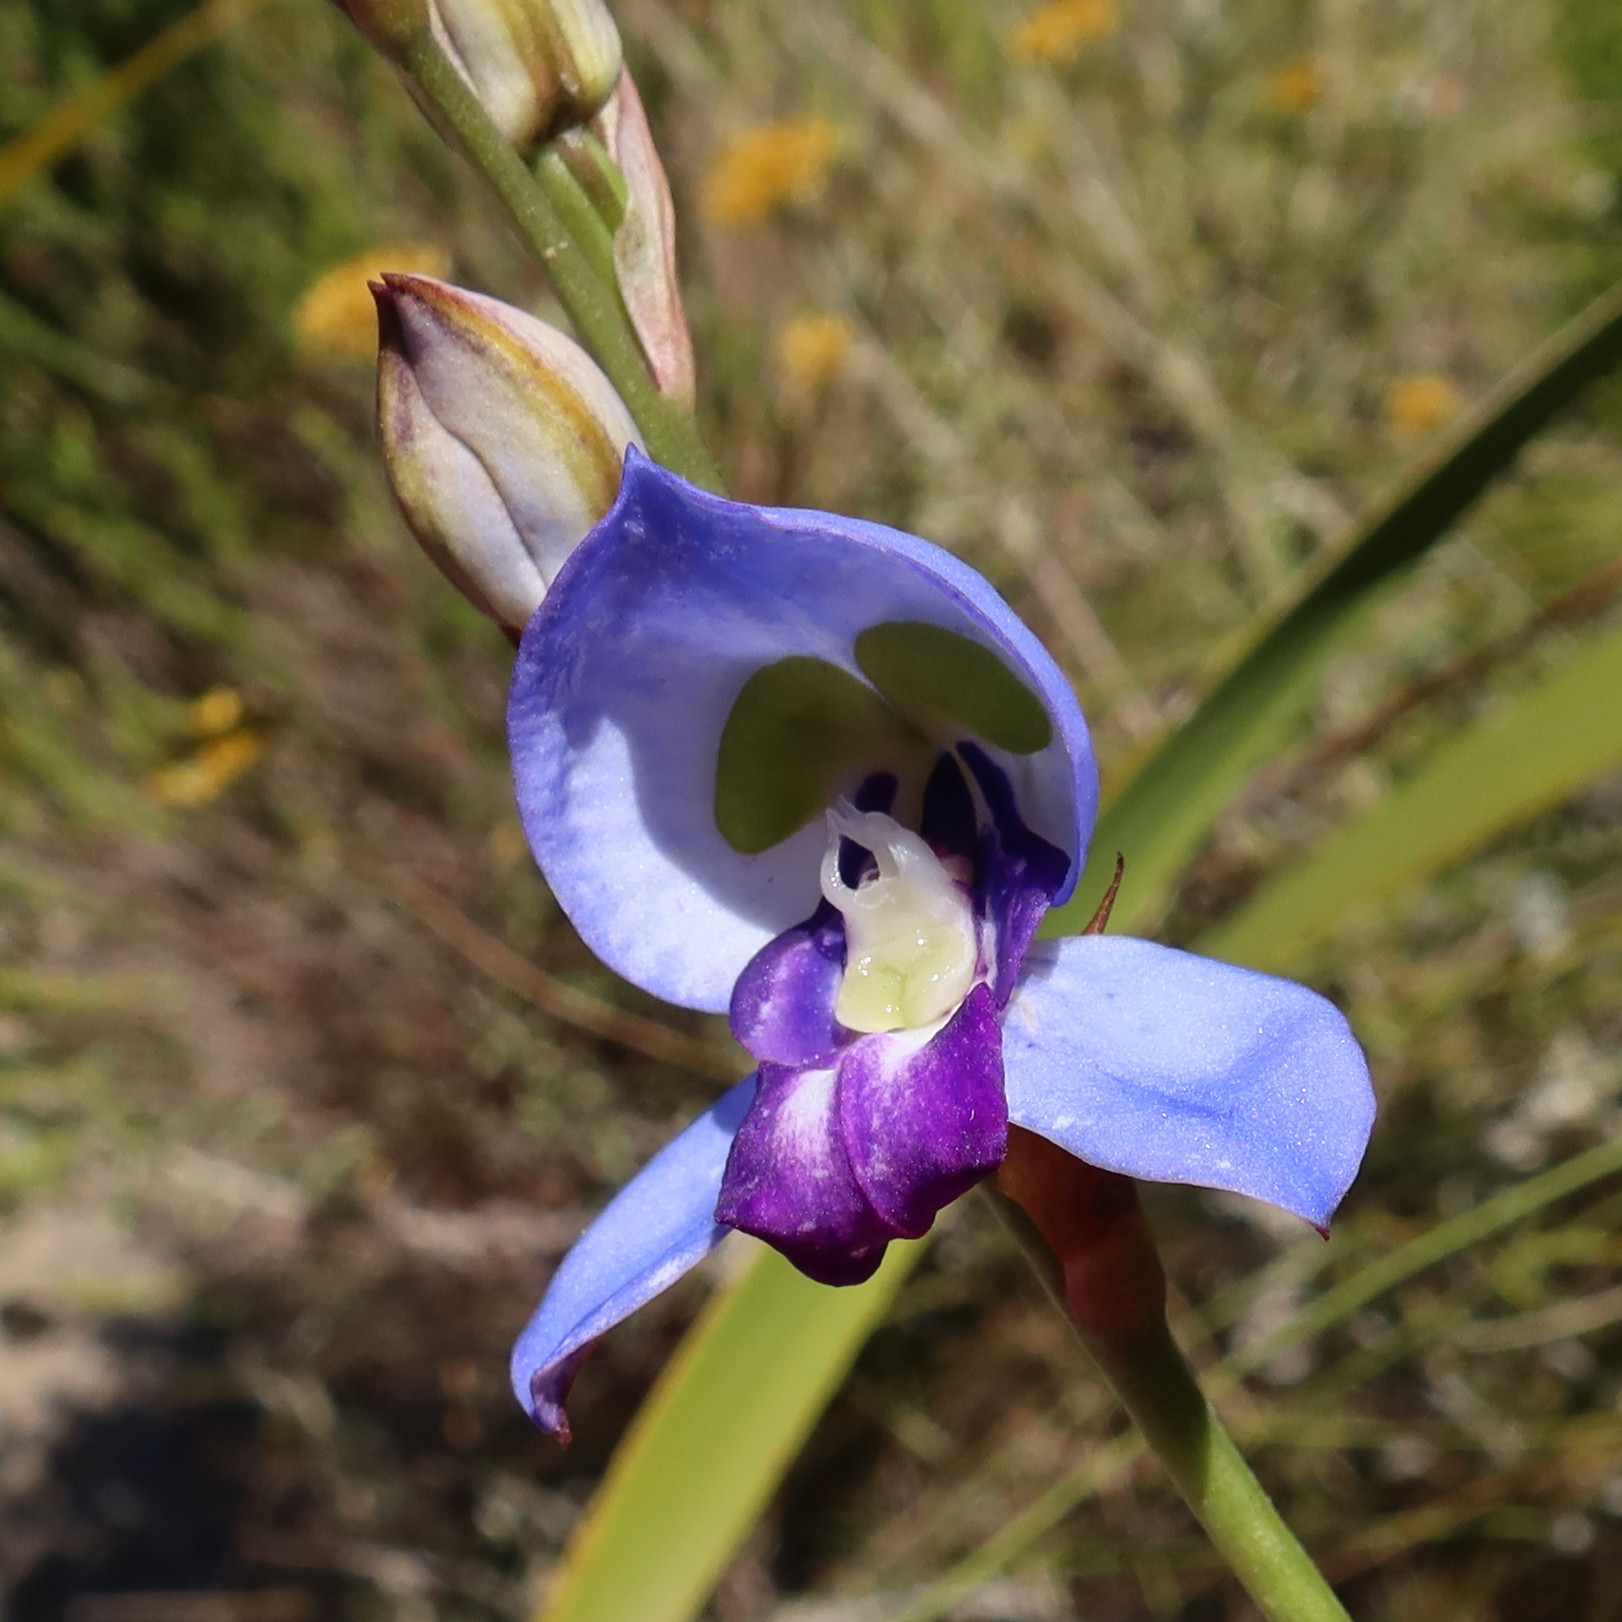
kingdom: Plantae
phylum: Tracheophyta
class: Liliopsida
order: Asparagales
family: Orchidaceae
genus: Disa
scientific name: Disa graminifolia
